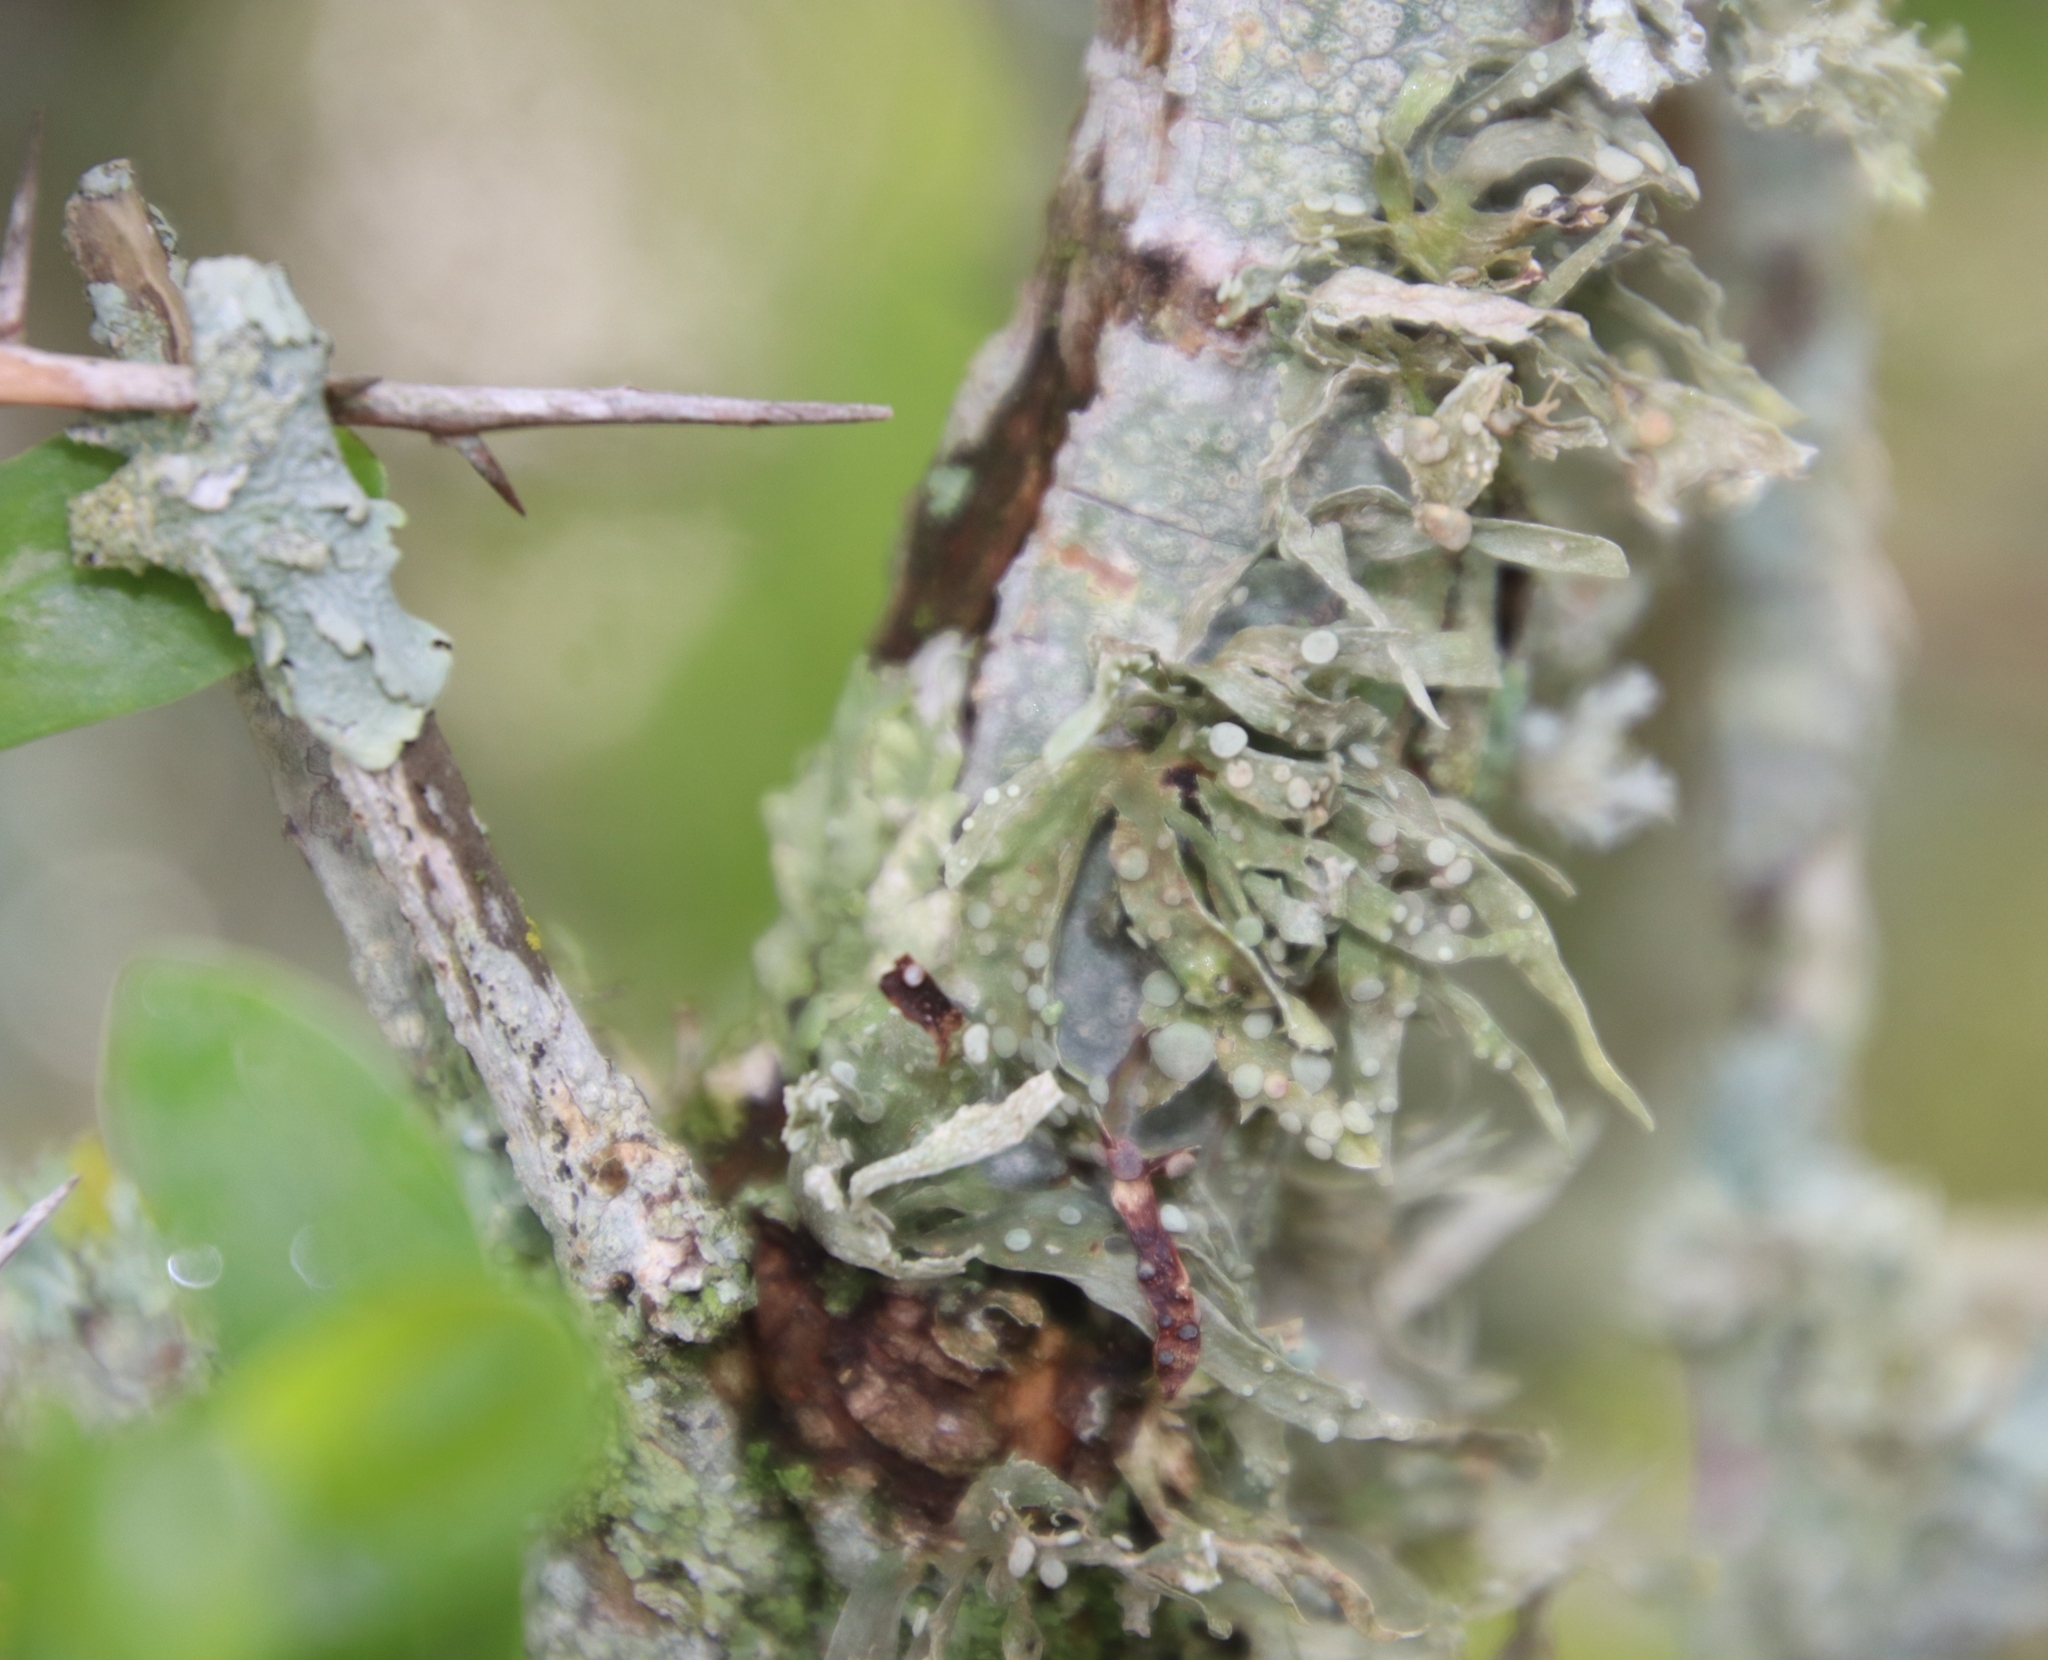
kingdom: Fungi
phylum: Ascomycota
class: Lecanoromycetes
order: Lecanorales
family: Ramalinaceae
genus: Ramalina
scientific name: Ramalina celastri
